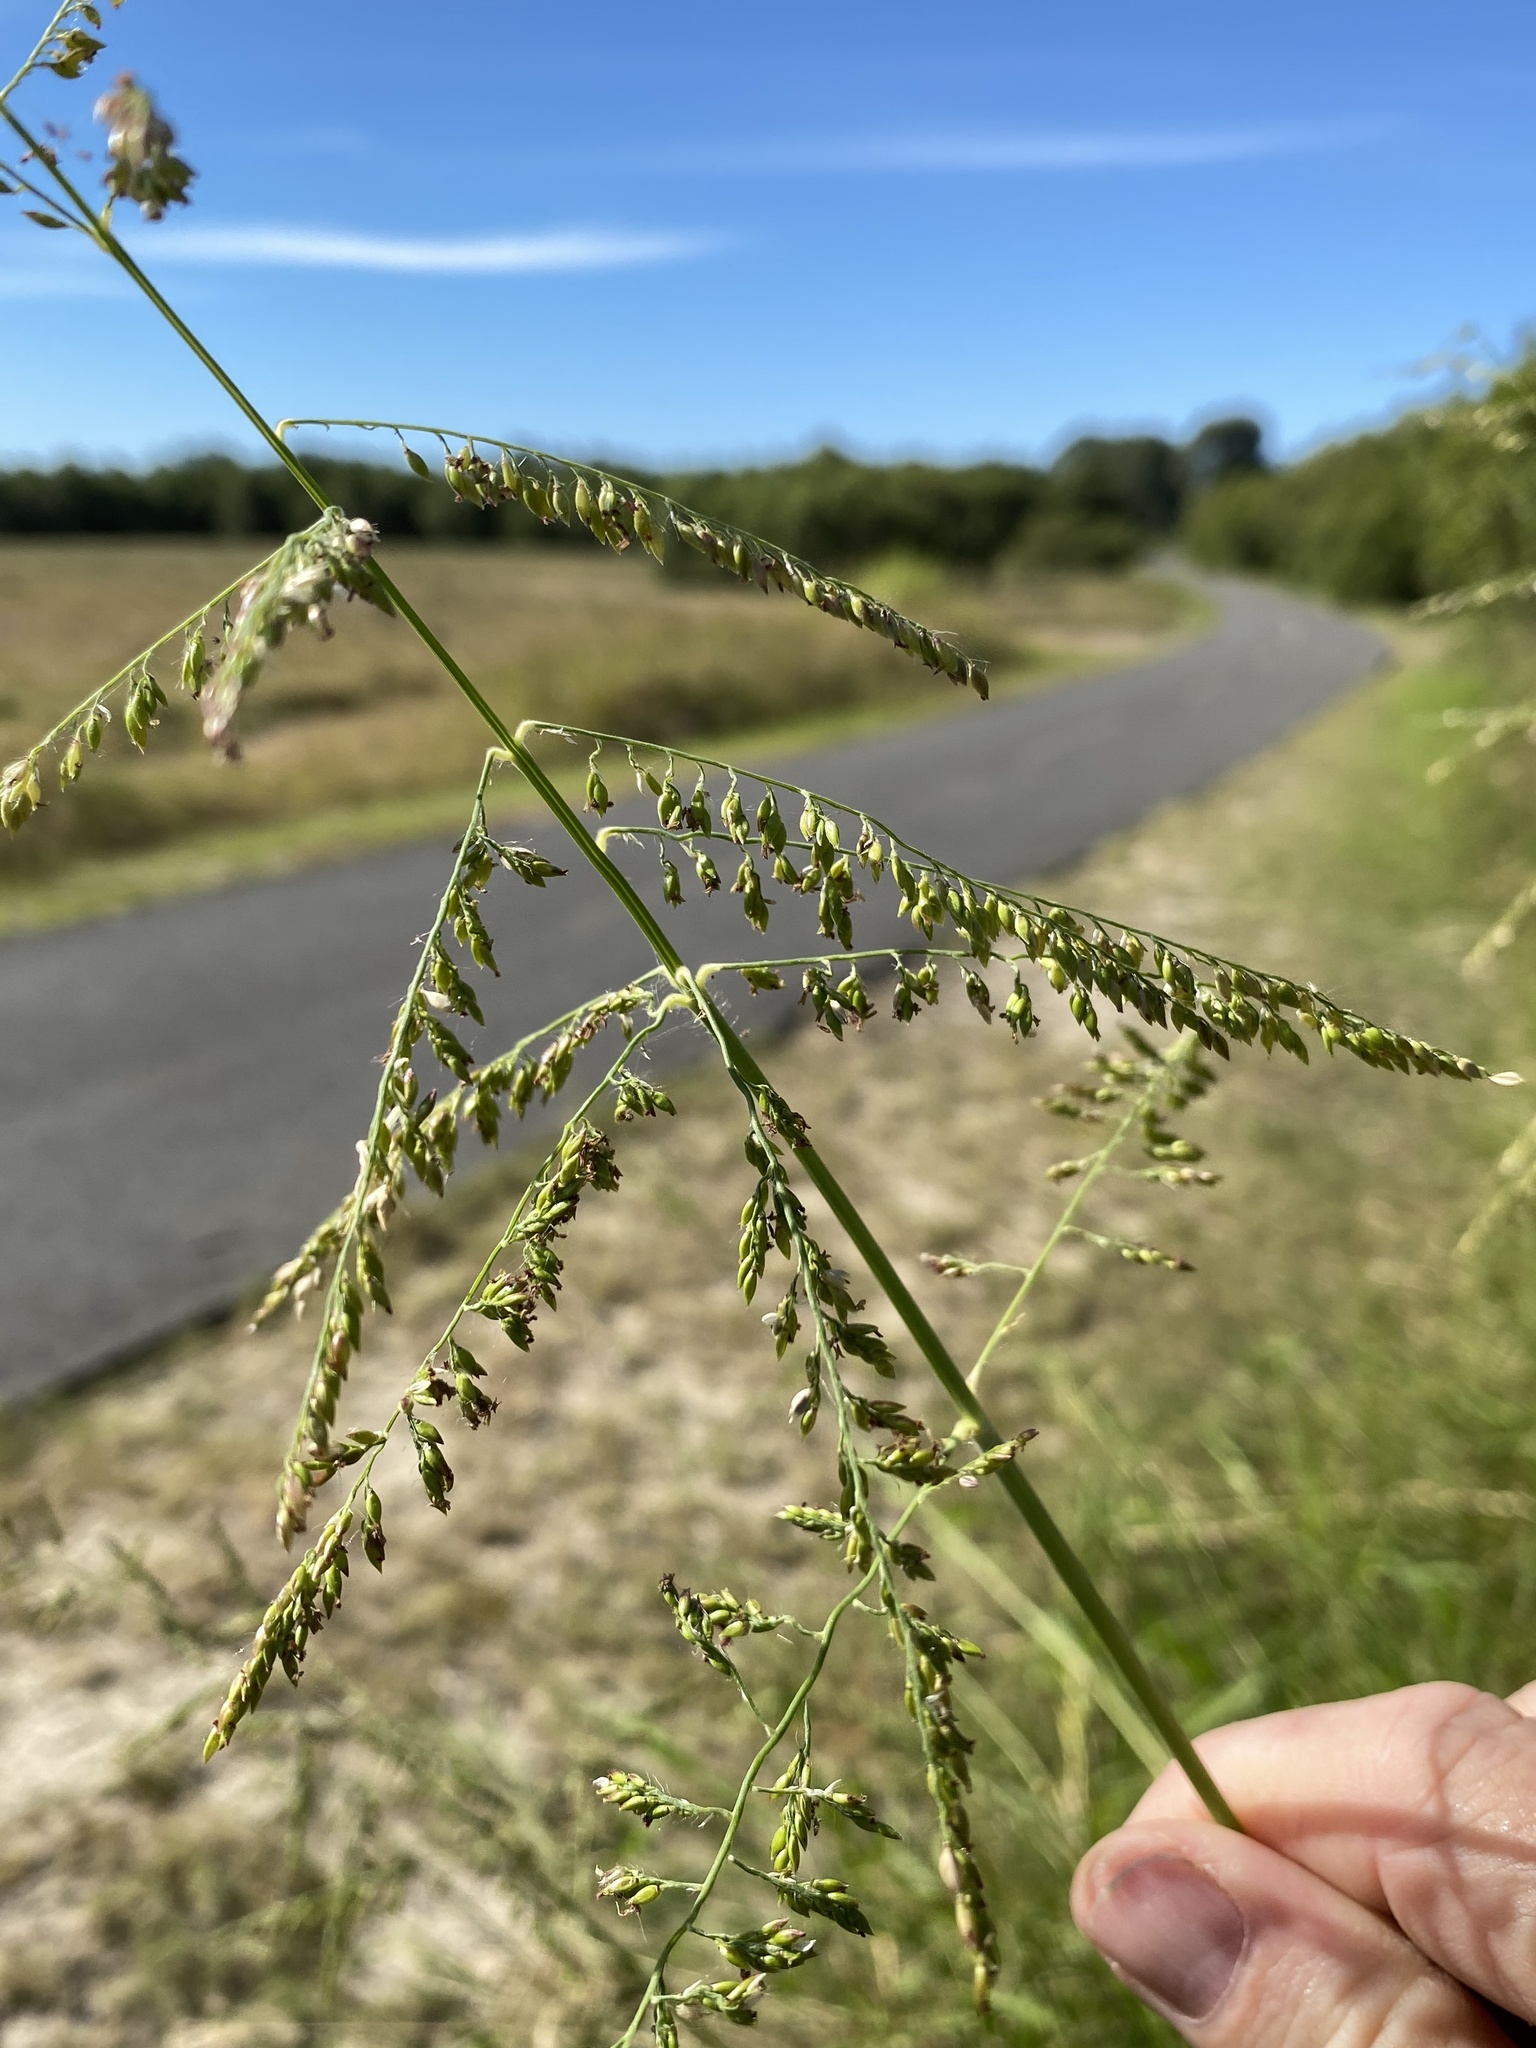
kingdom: Plantae
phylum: Tracheophyta
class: Liliopsida
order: Poales
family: Poaceae
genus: Urochloa
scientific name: Urochloa mutica
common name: Para grass
